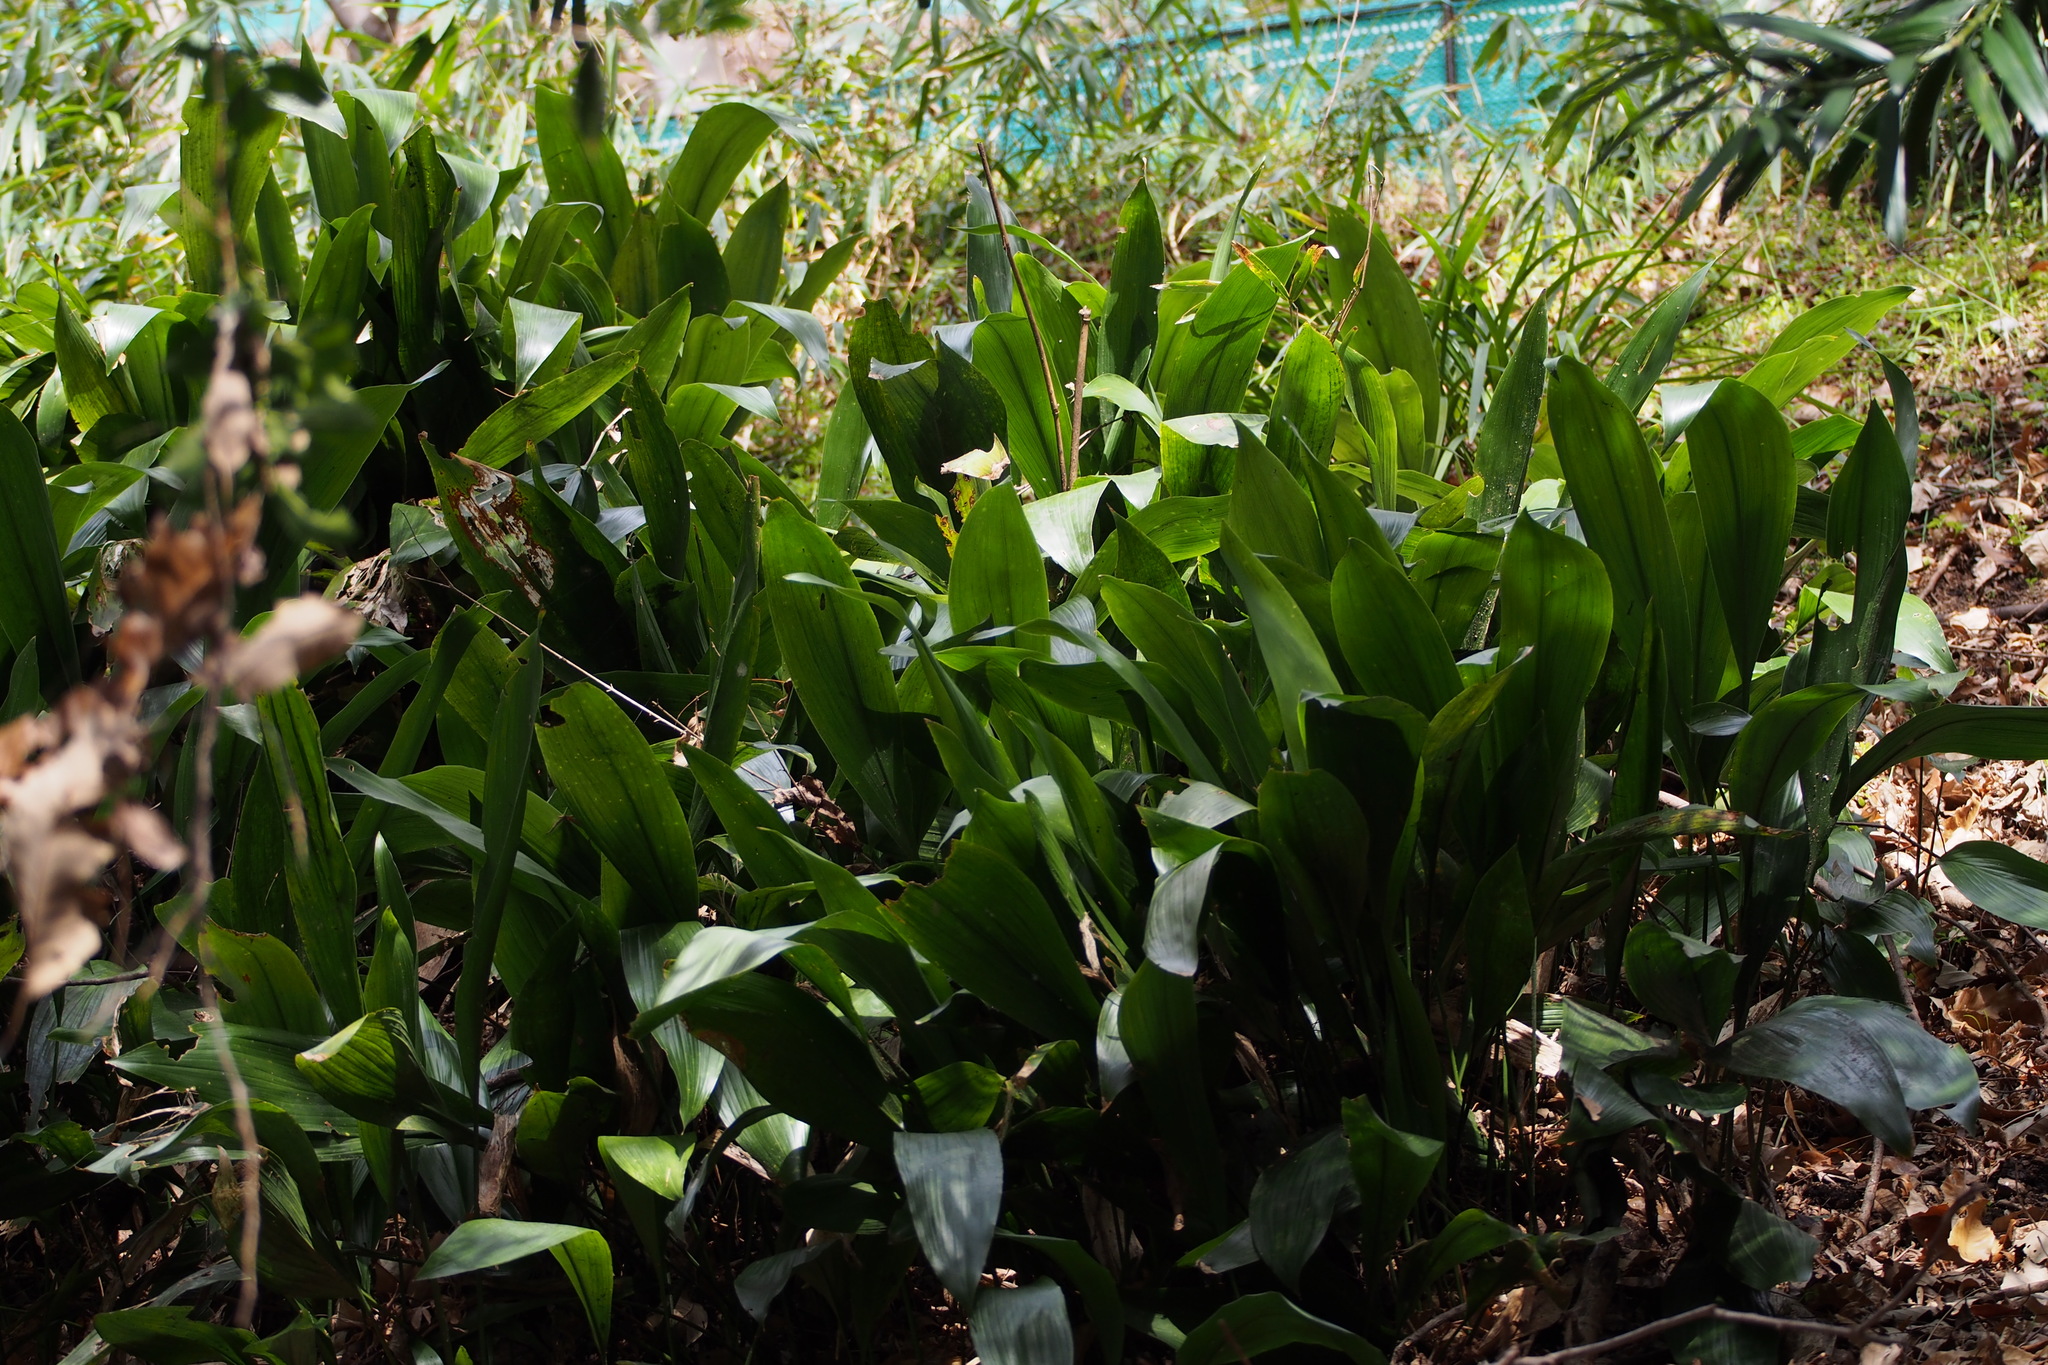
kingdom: Plantae
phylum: Tracheophyta
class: Liliopsida
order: Asparagales
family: Asparagaceae
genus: Aspidistra
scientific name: Aspidistra elatior
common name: Cast-iron-plant
